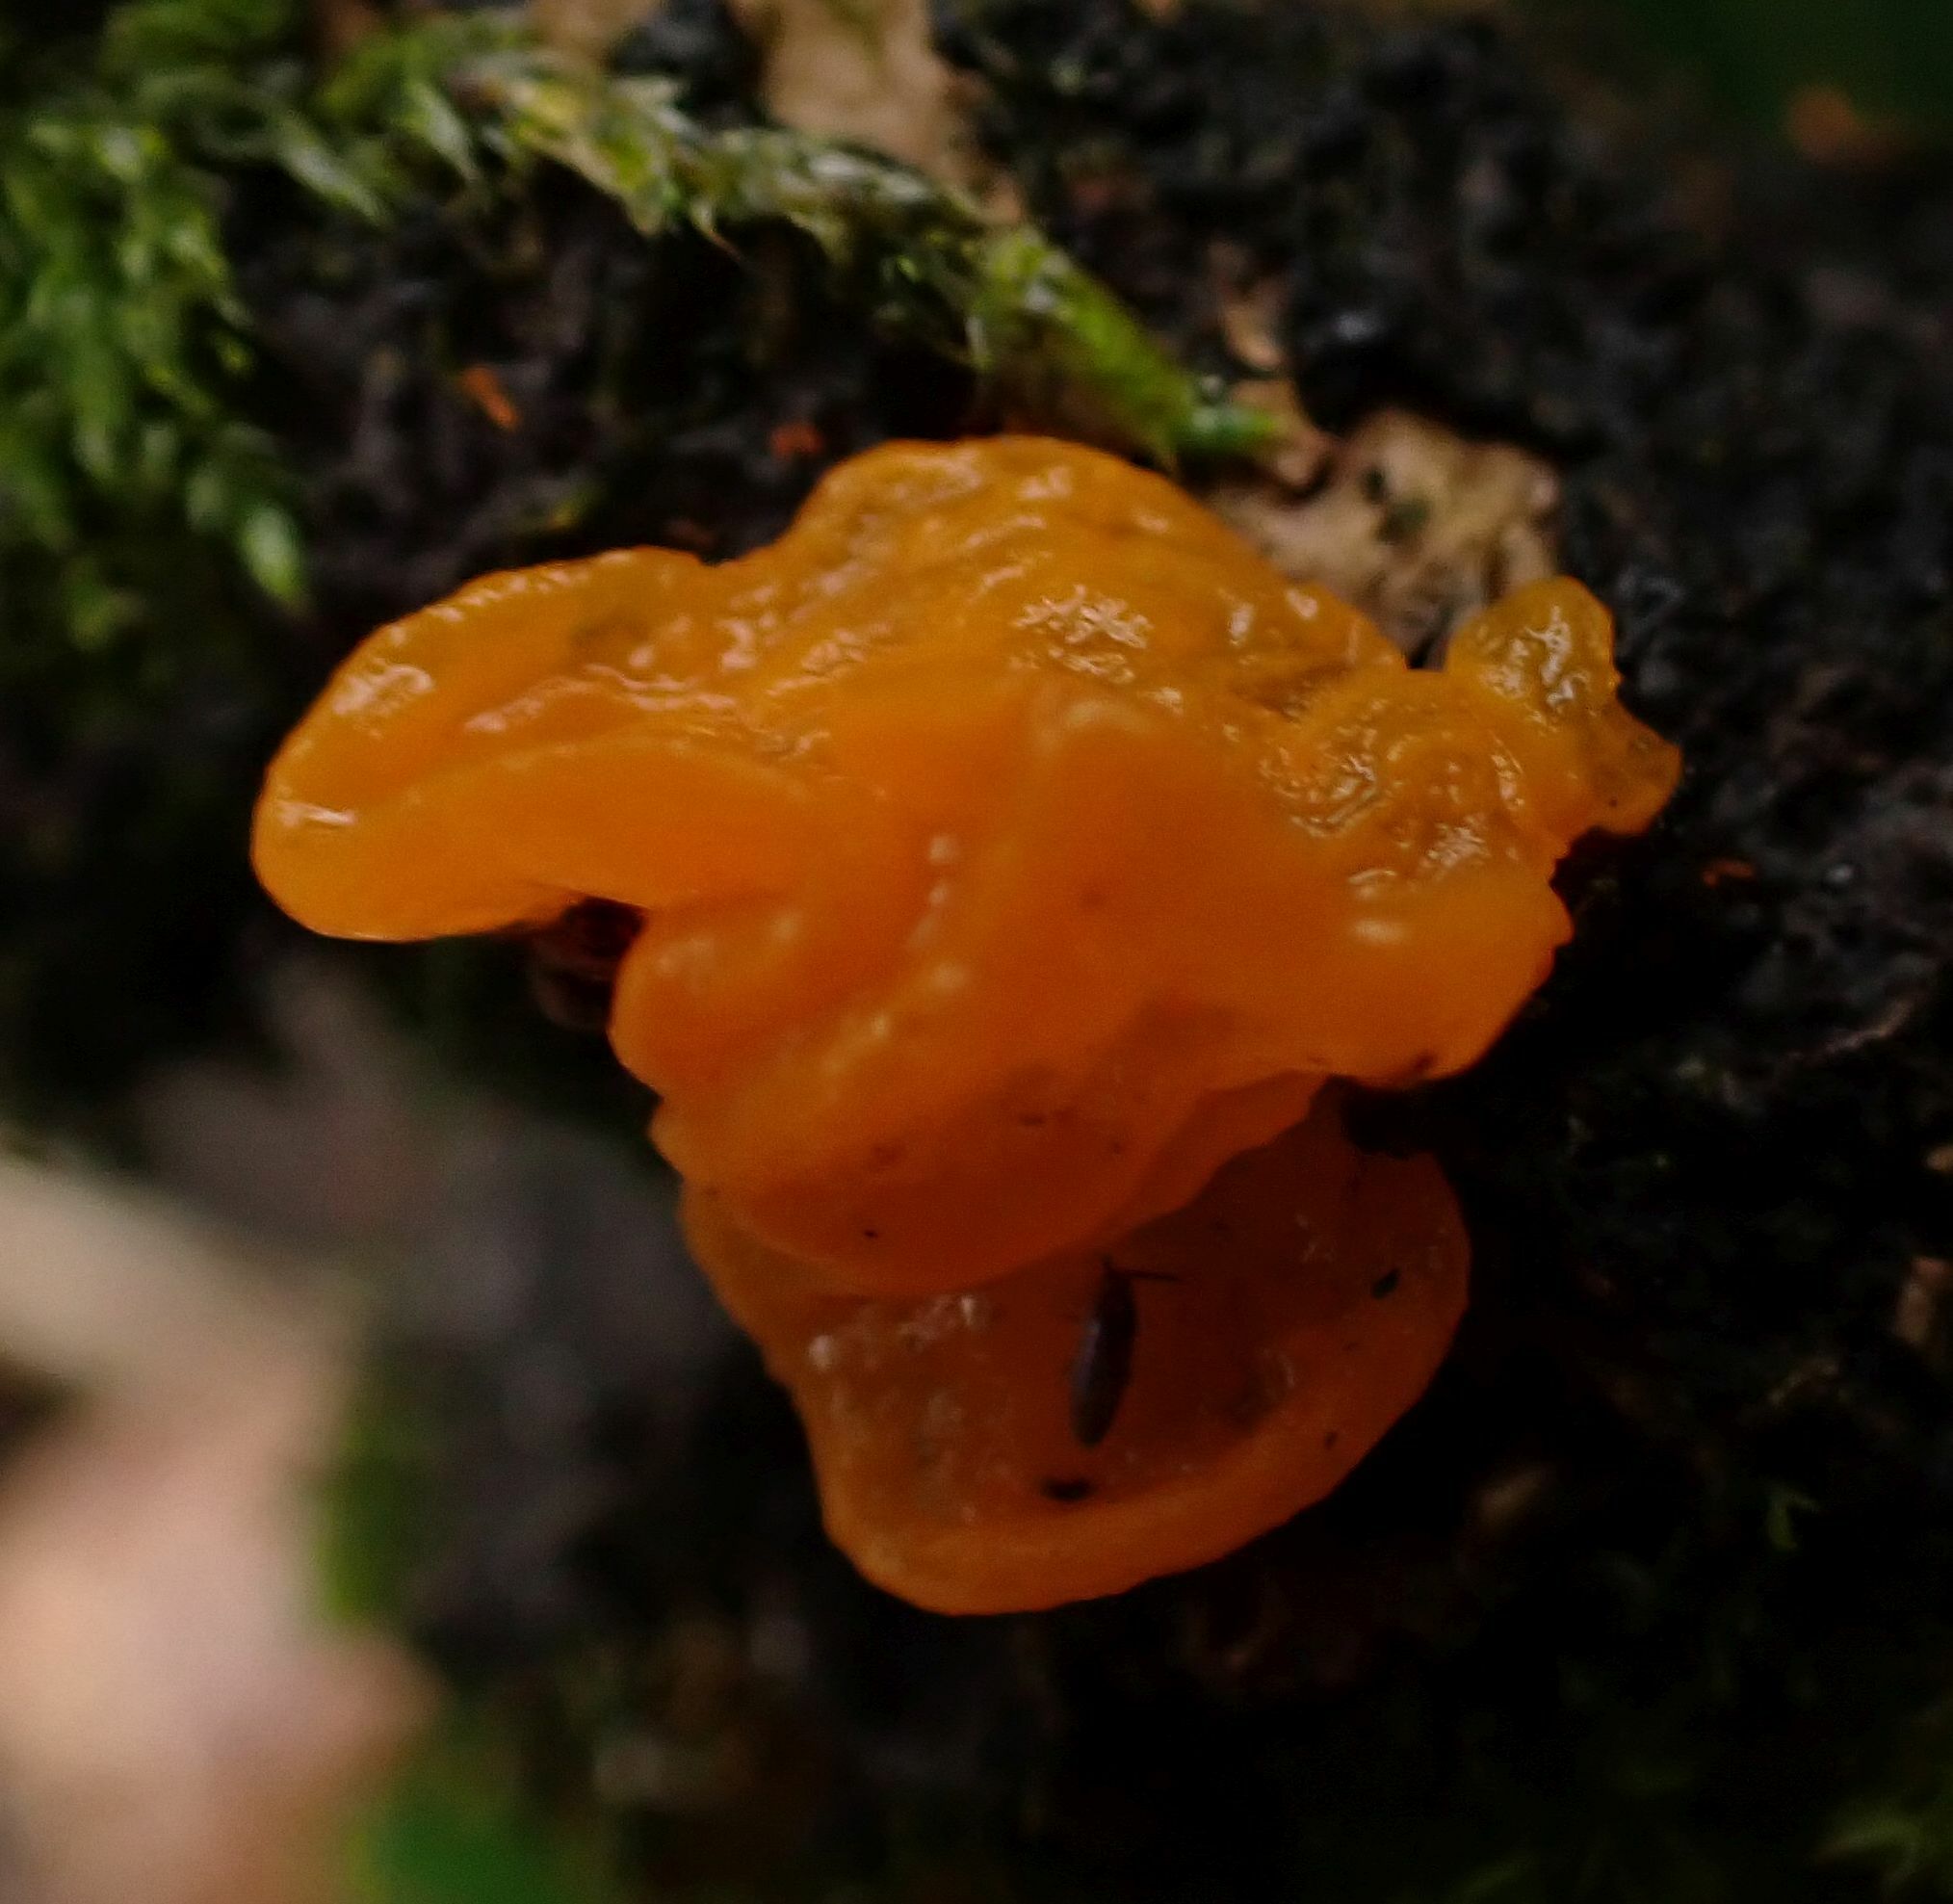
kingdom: Fungi
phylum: Basidiomycota
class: Tremellomycetes
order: Tremellales
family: Tremellaceae
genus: Tremella
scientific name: Tremella mesenterica
